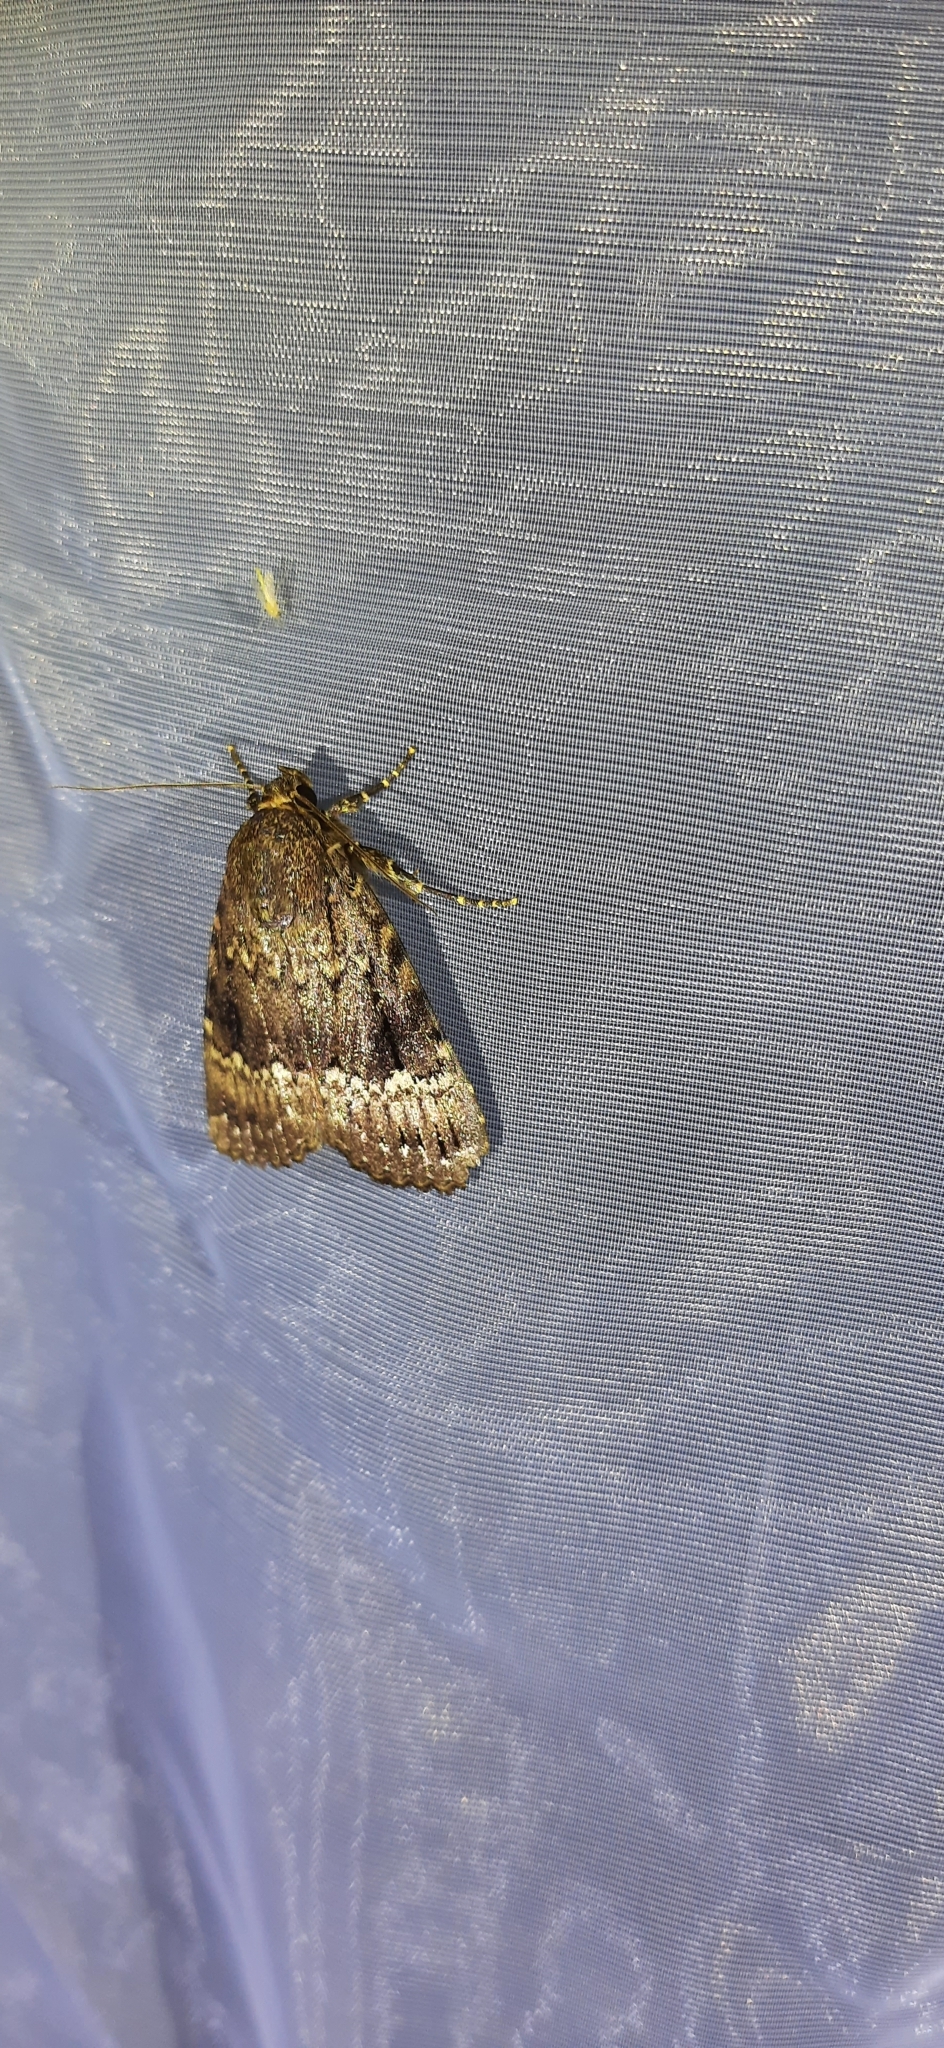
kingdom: Animalia
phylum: Arthropoda
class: Insecta
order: Lepidoptera
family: Noctuidae
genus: Amphipyra
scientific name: Amphipyra pyramidea
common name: Copper underwing
